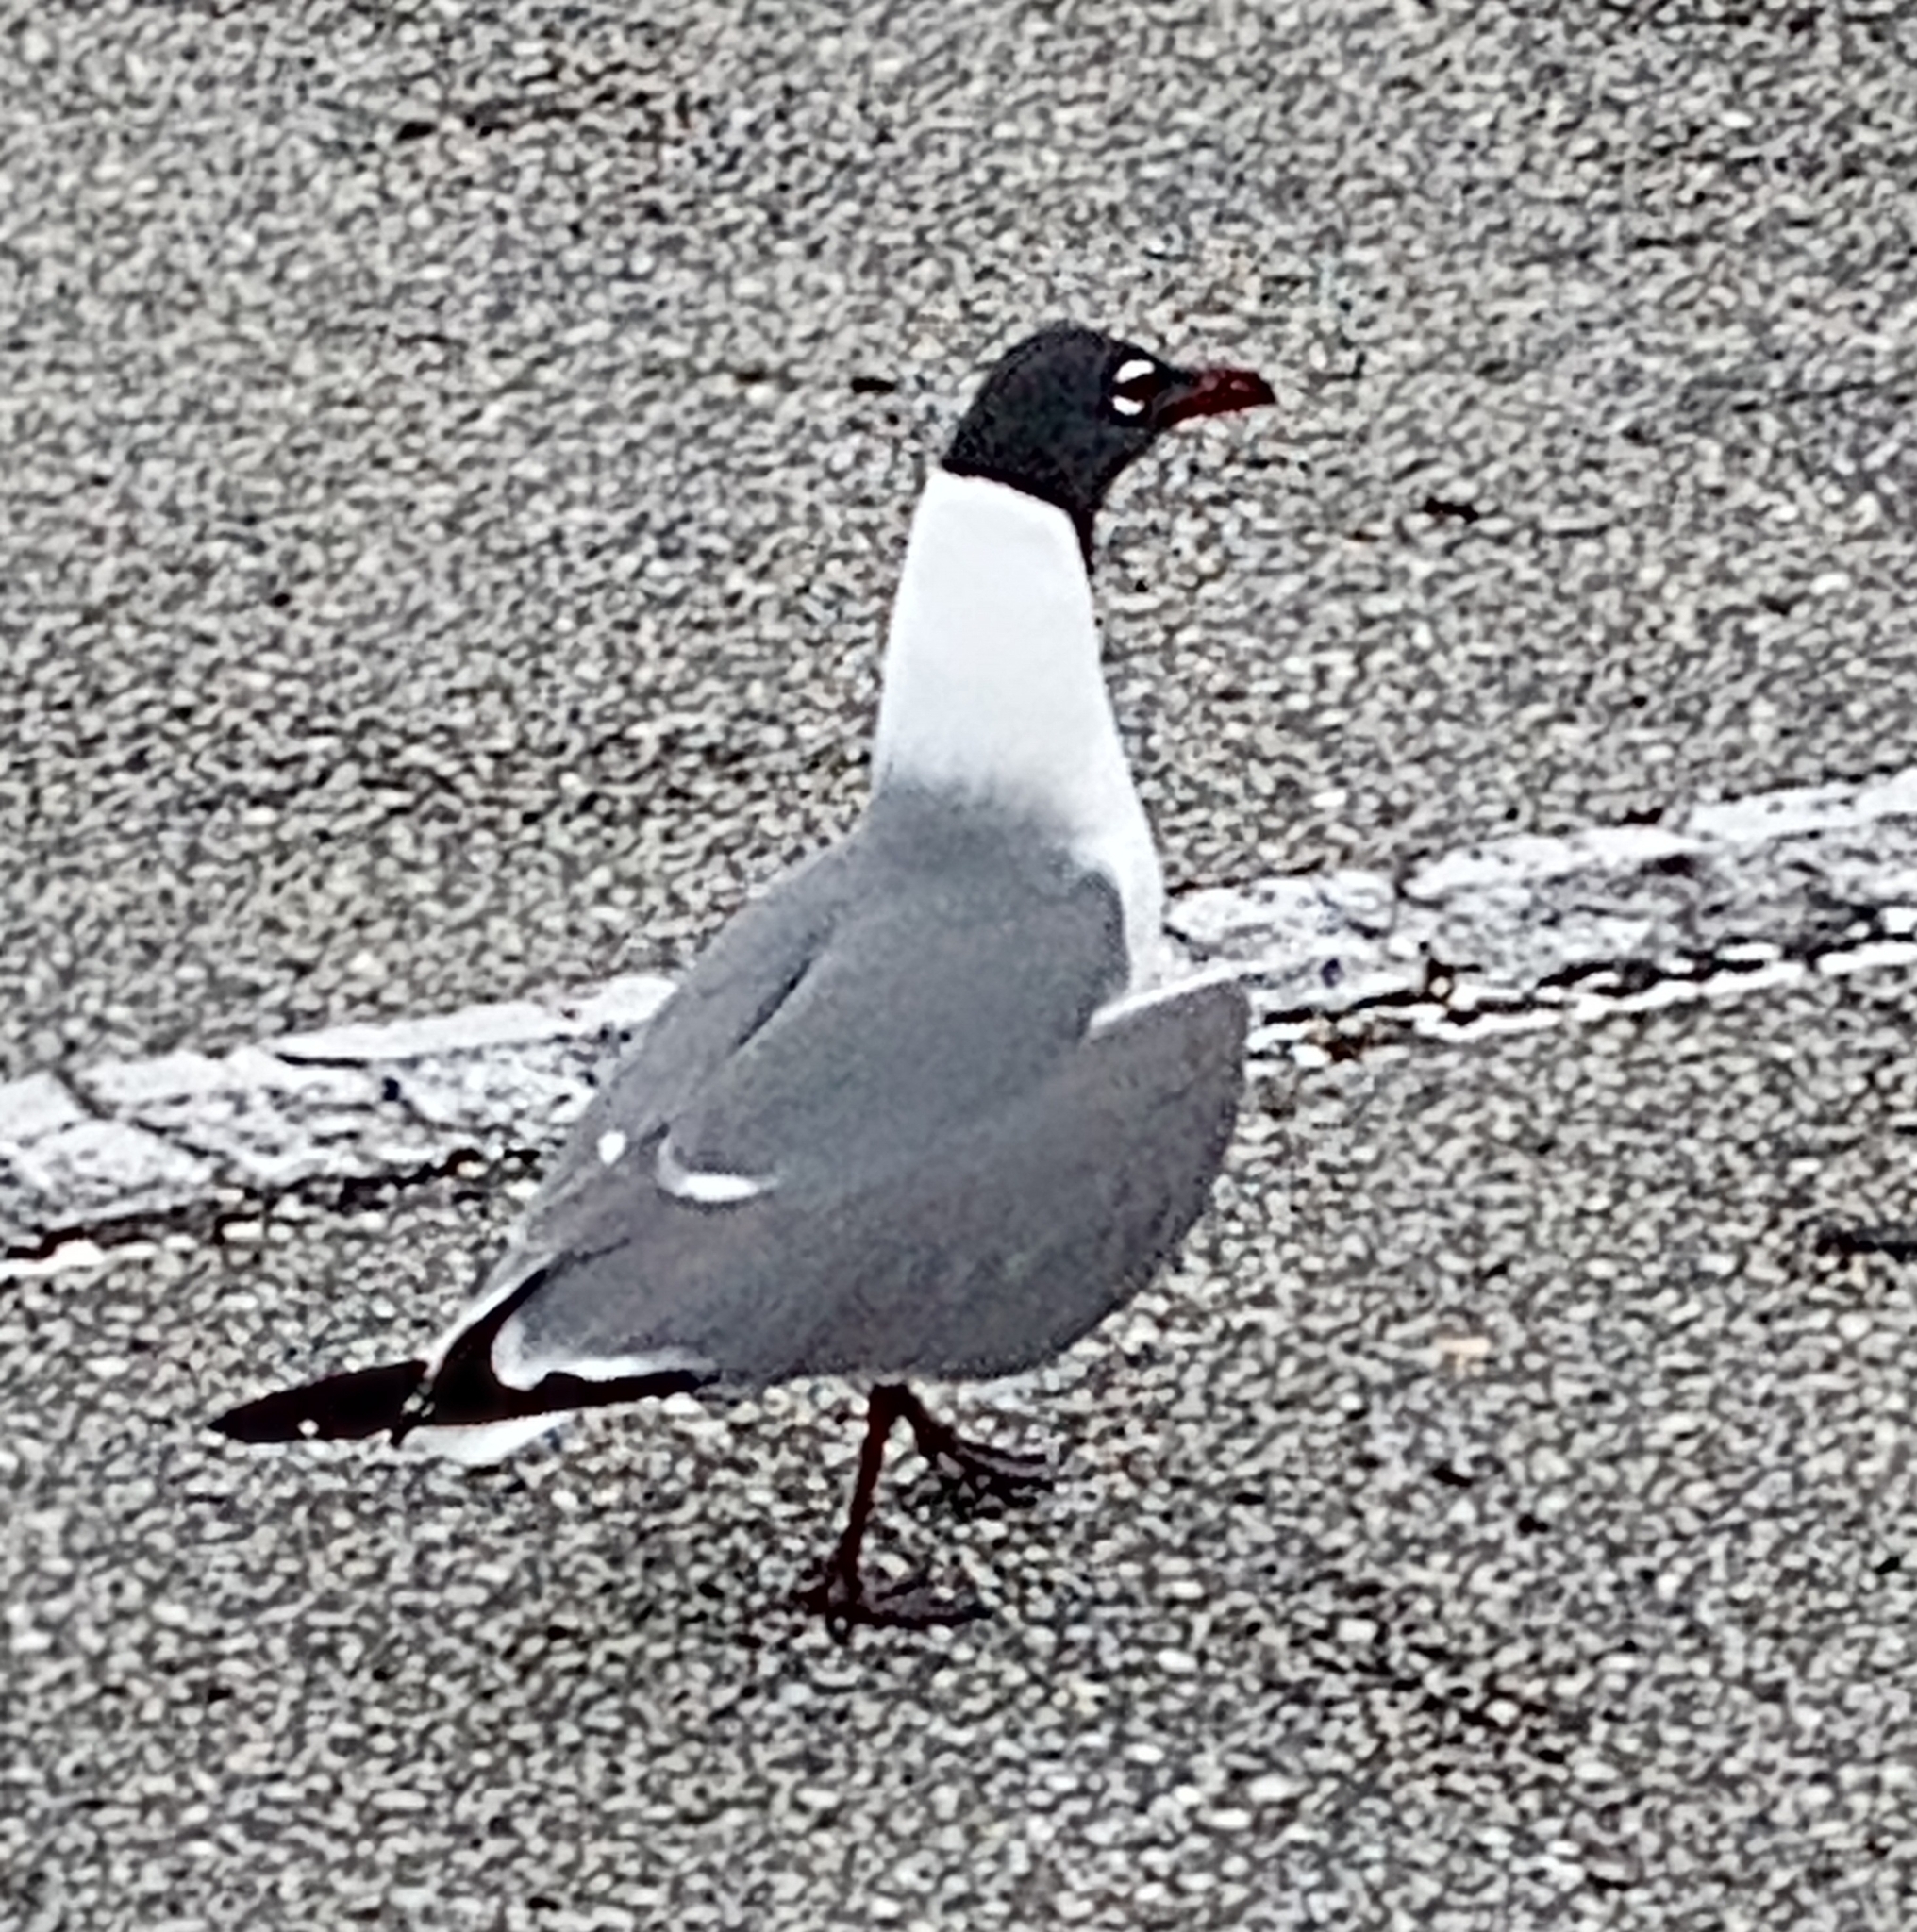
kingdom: Animalia
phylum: Chordata
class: Aves
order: Charadriiformes
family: Laridae
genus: Leucophaeus
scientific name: Leucophaeus atricilla
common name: Laughing gull
